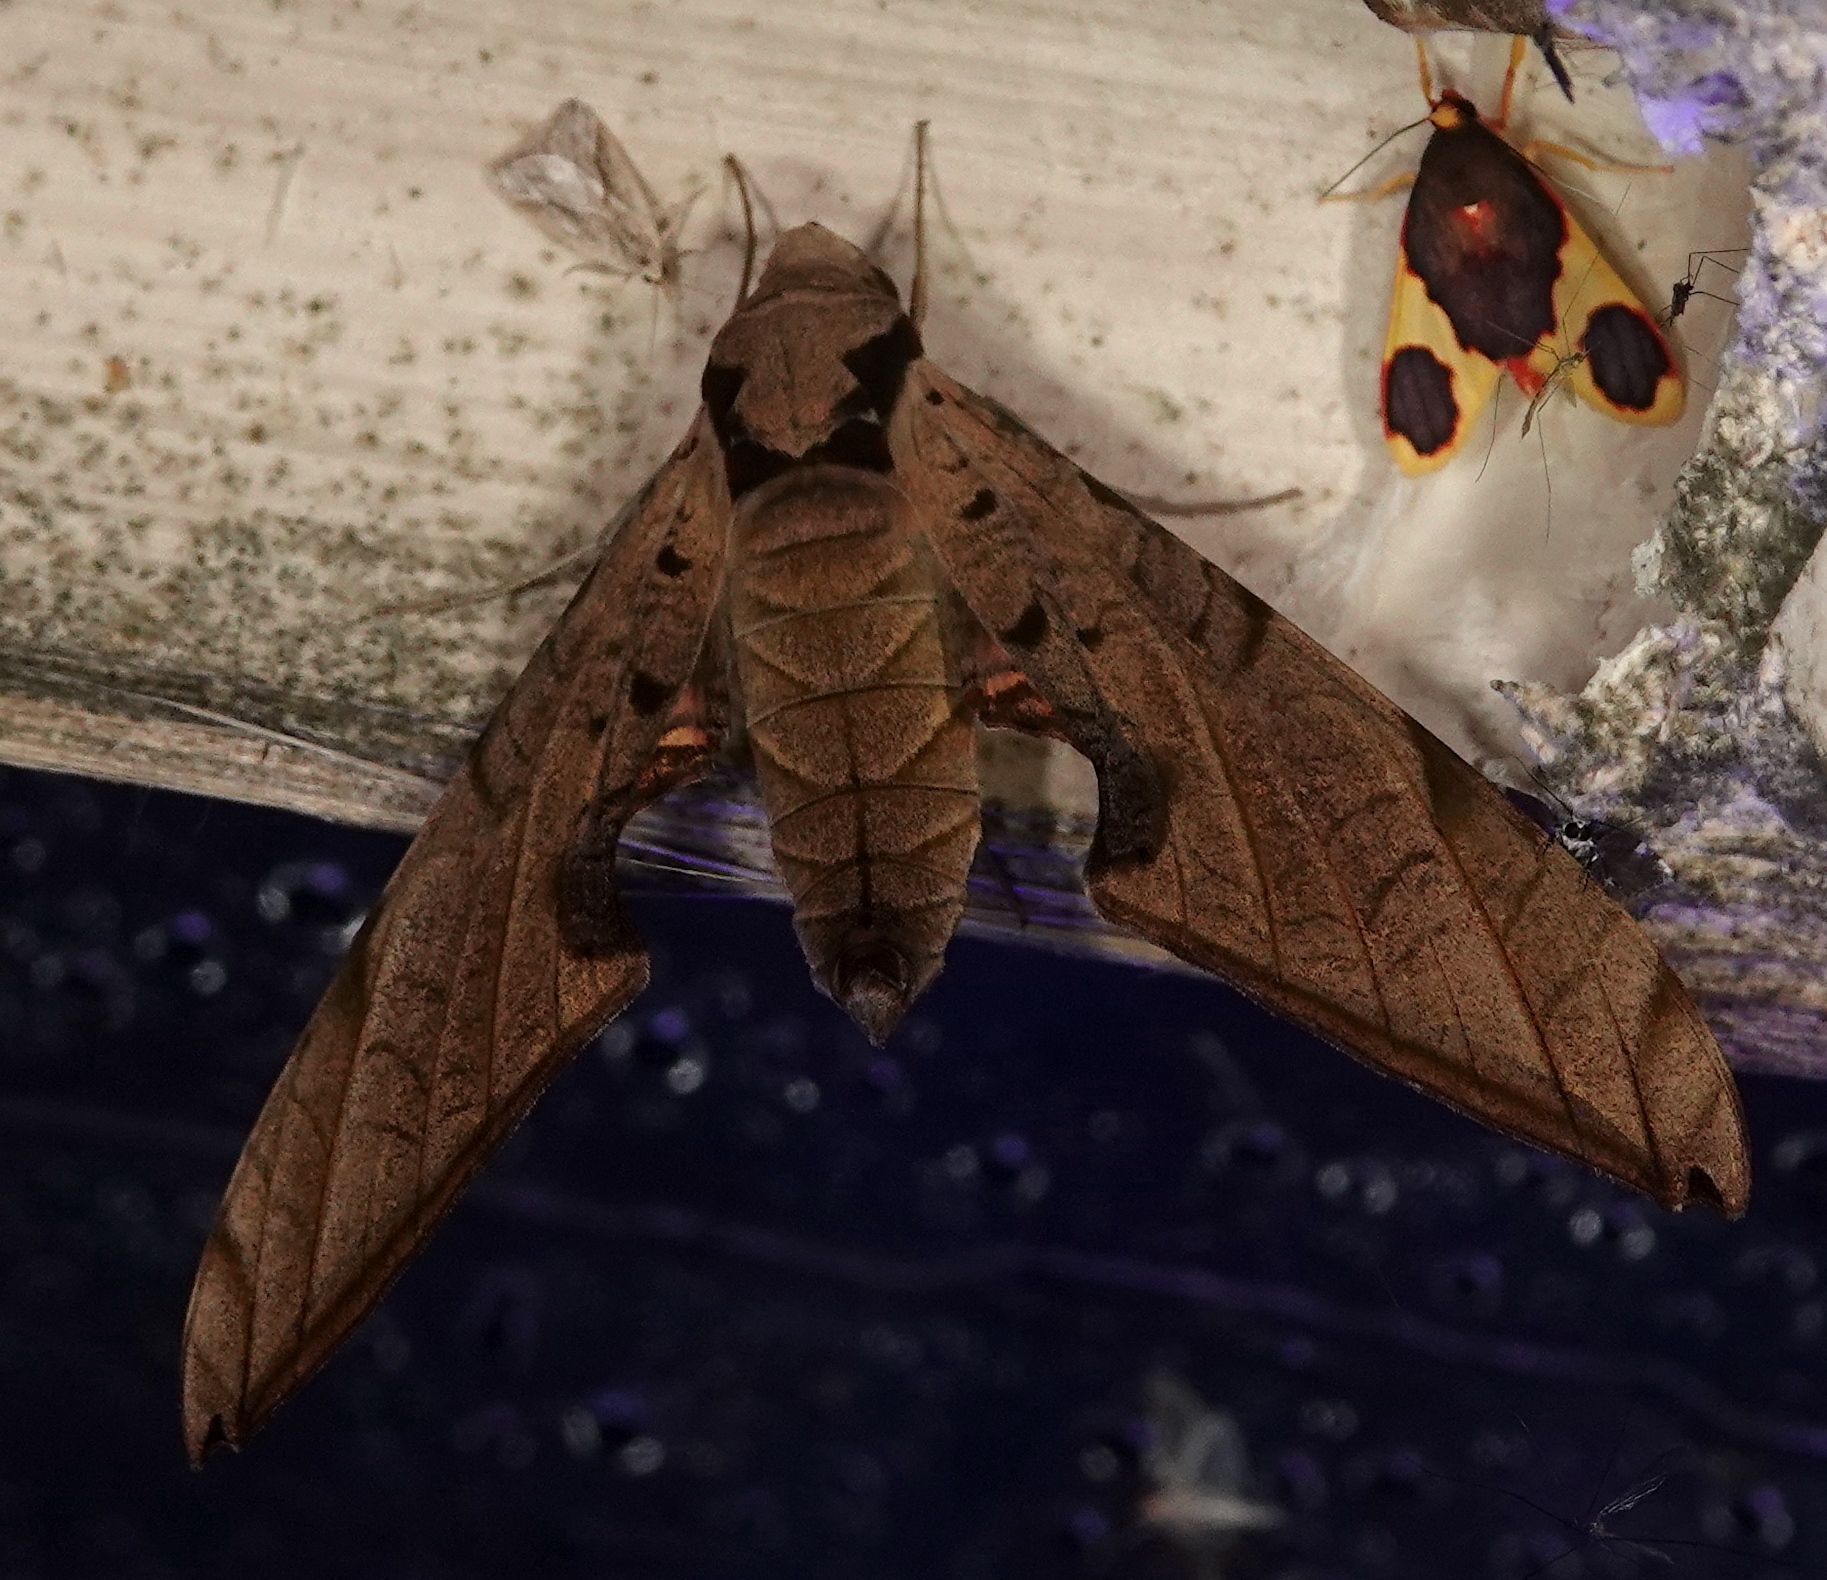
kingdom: Animalia
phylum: Arthropoda
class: Insecta
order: Lepidoptera
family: Sphingidae
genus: Protambulyx
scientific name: Protambulyx strigilis
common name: Streaked sphinx
